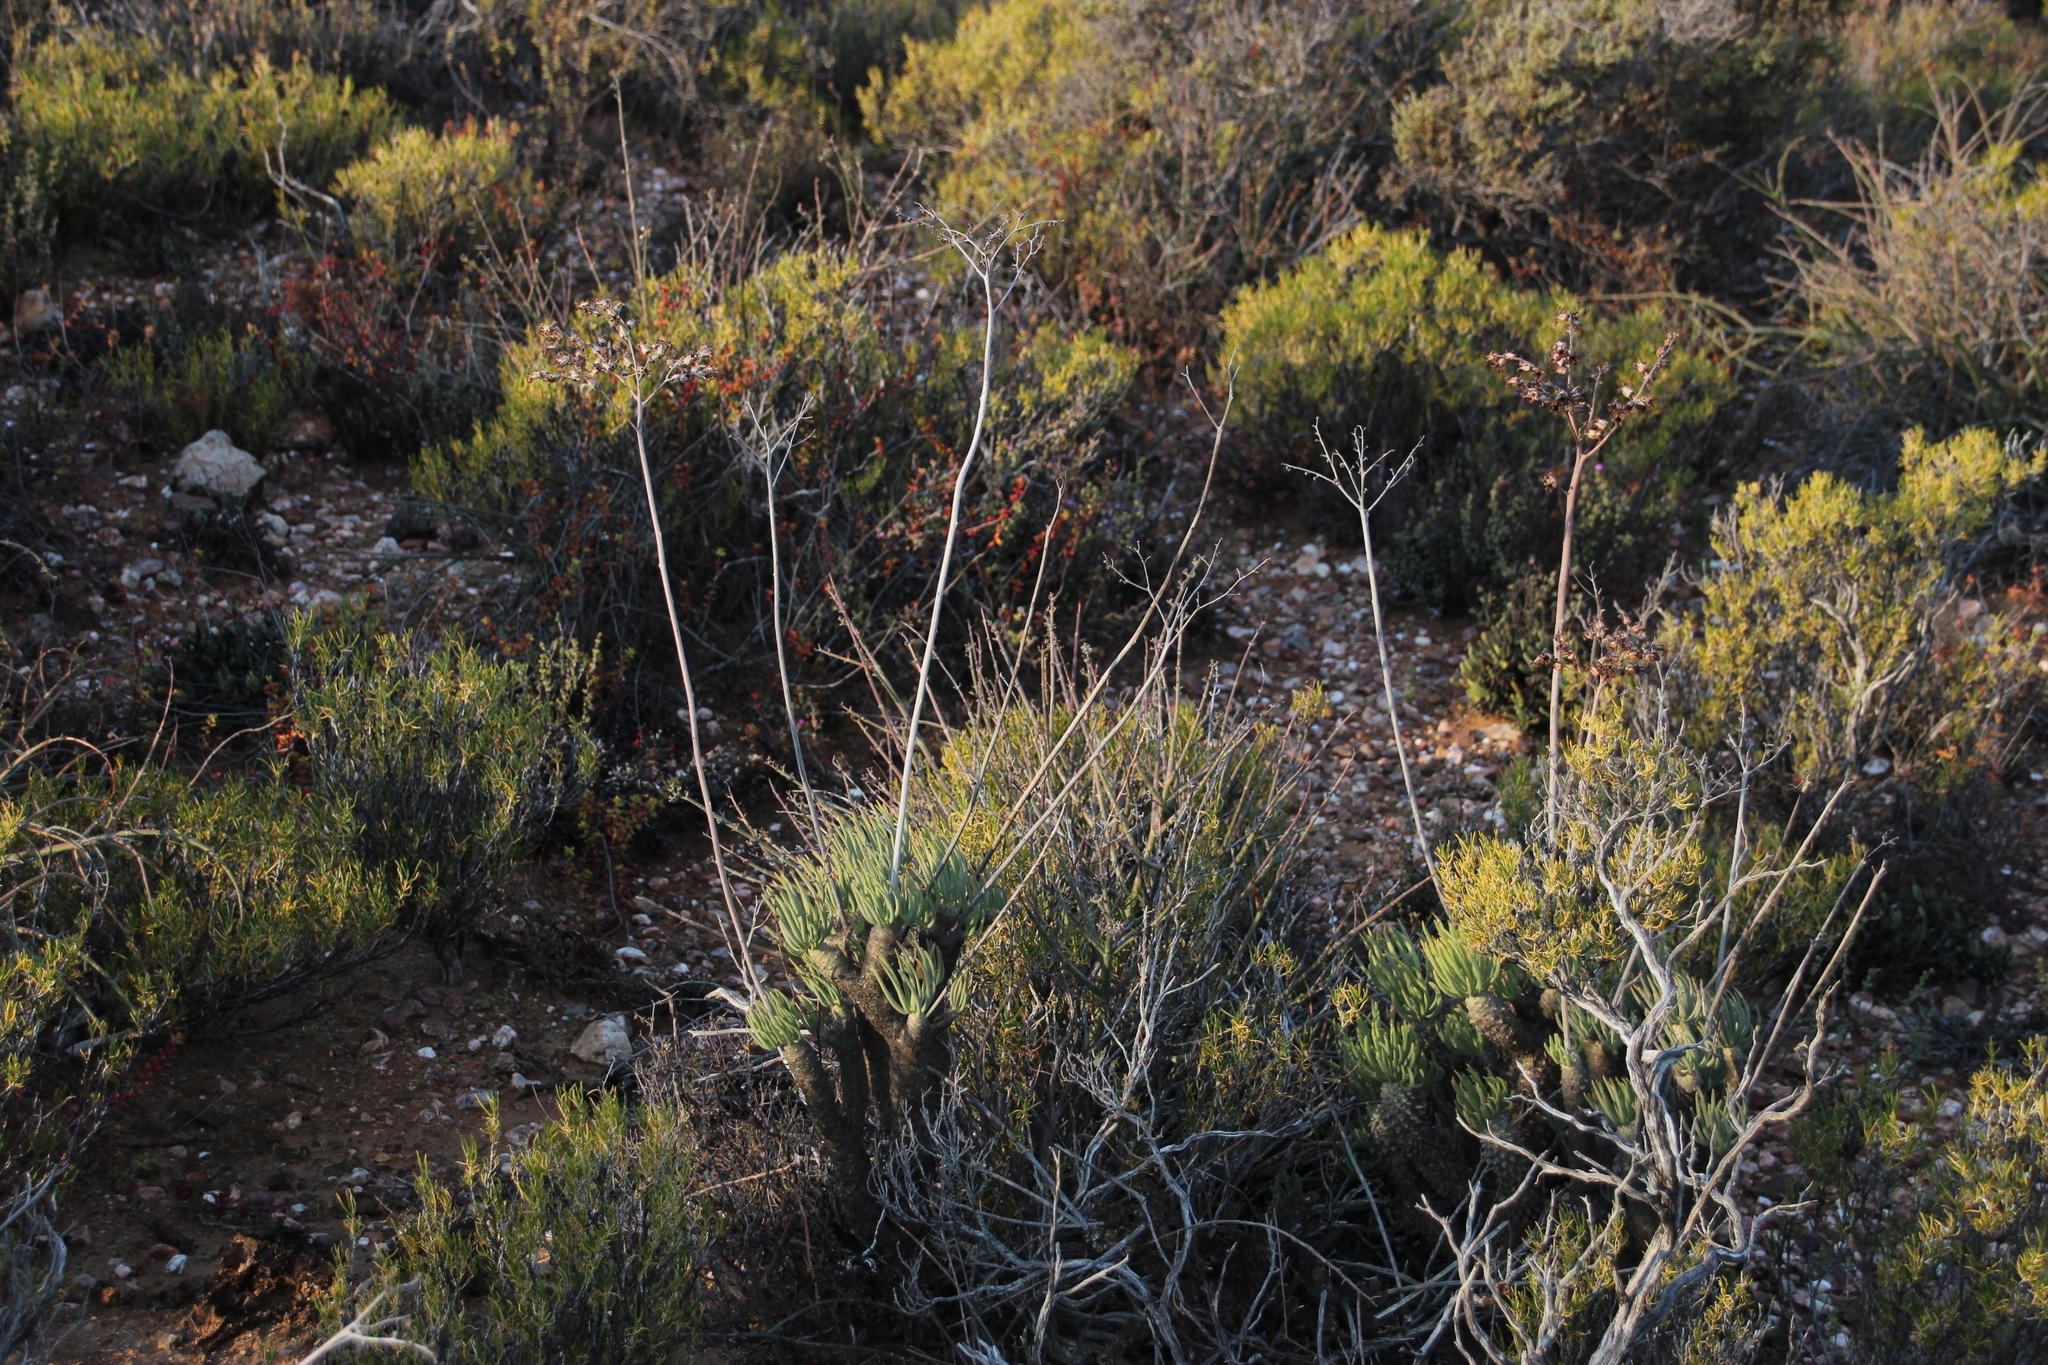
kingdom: Plantae
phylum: Tracheophyta
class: Magnoliopsida
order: Saxifragales
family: Crassulaceae
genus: Tylecodon
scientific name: Tylecodon wallichii
